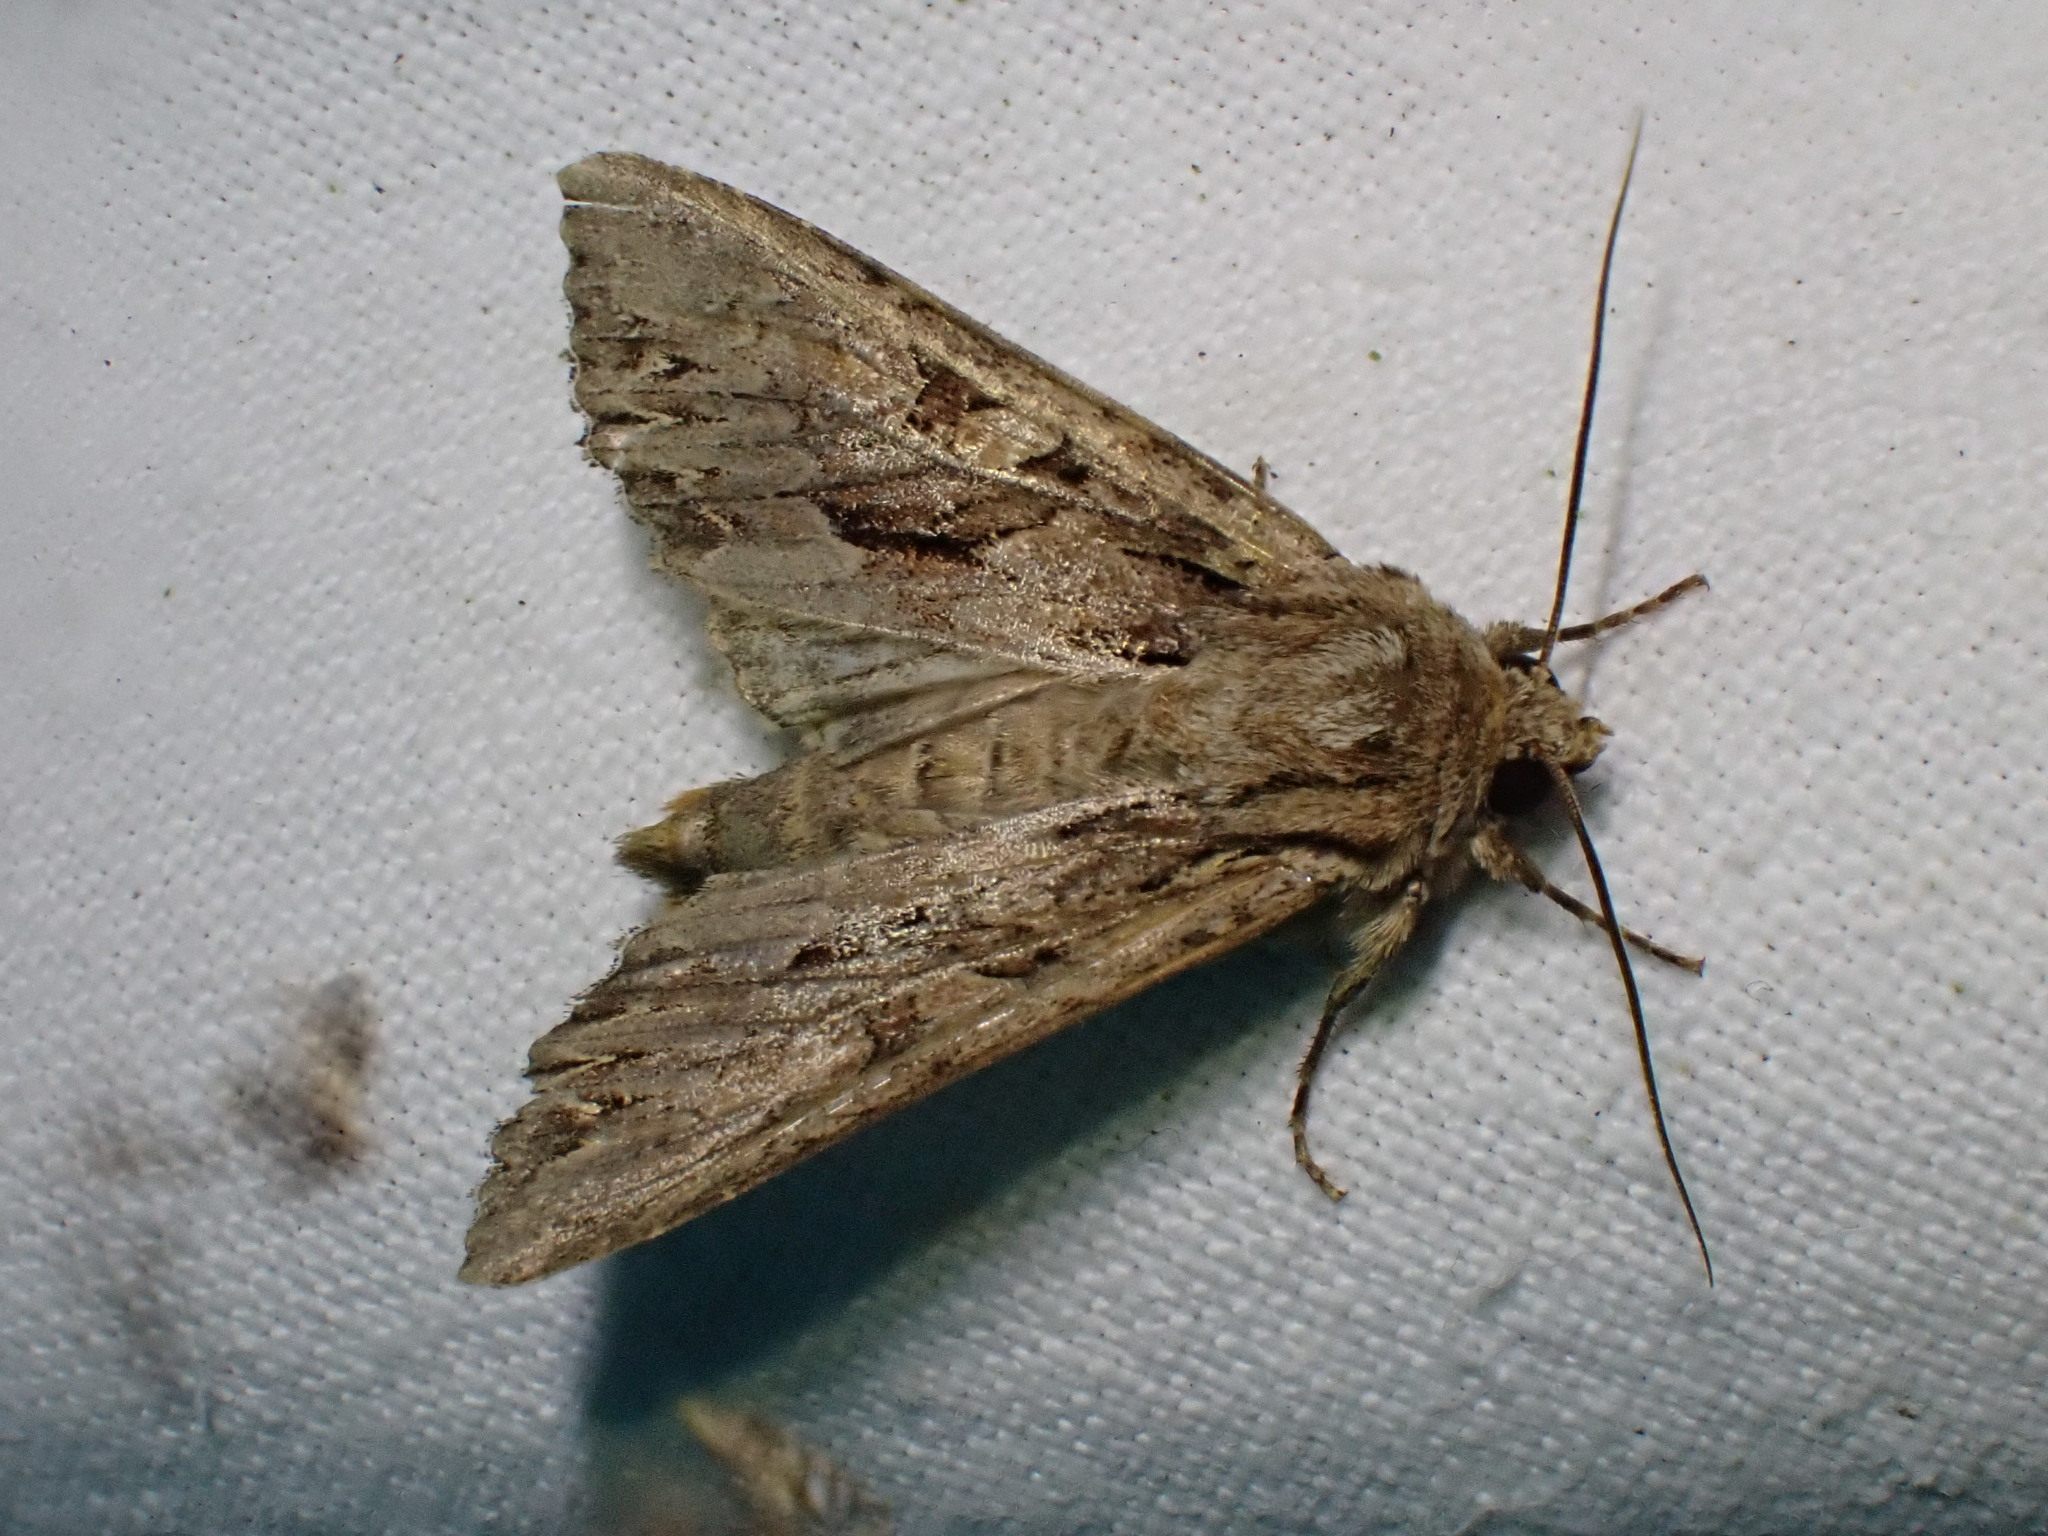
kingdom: Animalia
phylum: Arthropoda
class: Insecta
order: Lepidoptera
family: Noctuidae
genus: Apamea
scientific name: Apamea monoglypha
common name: Dark arches
